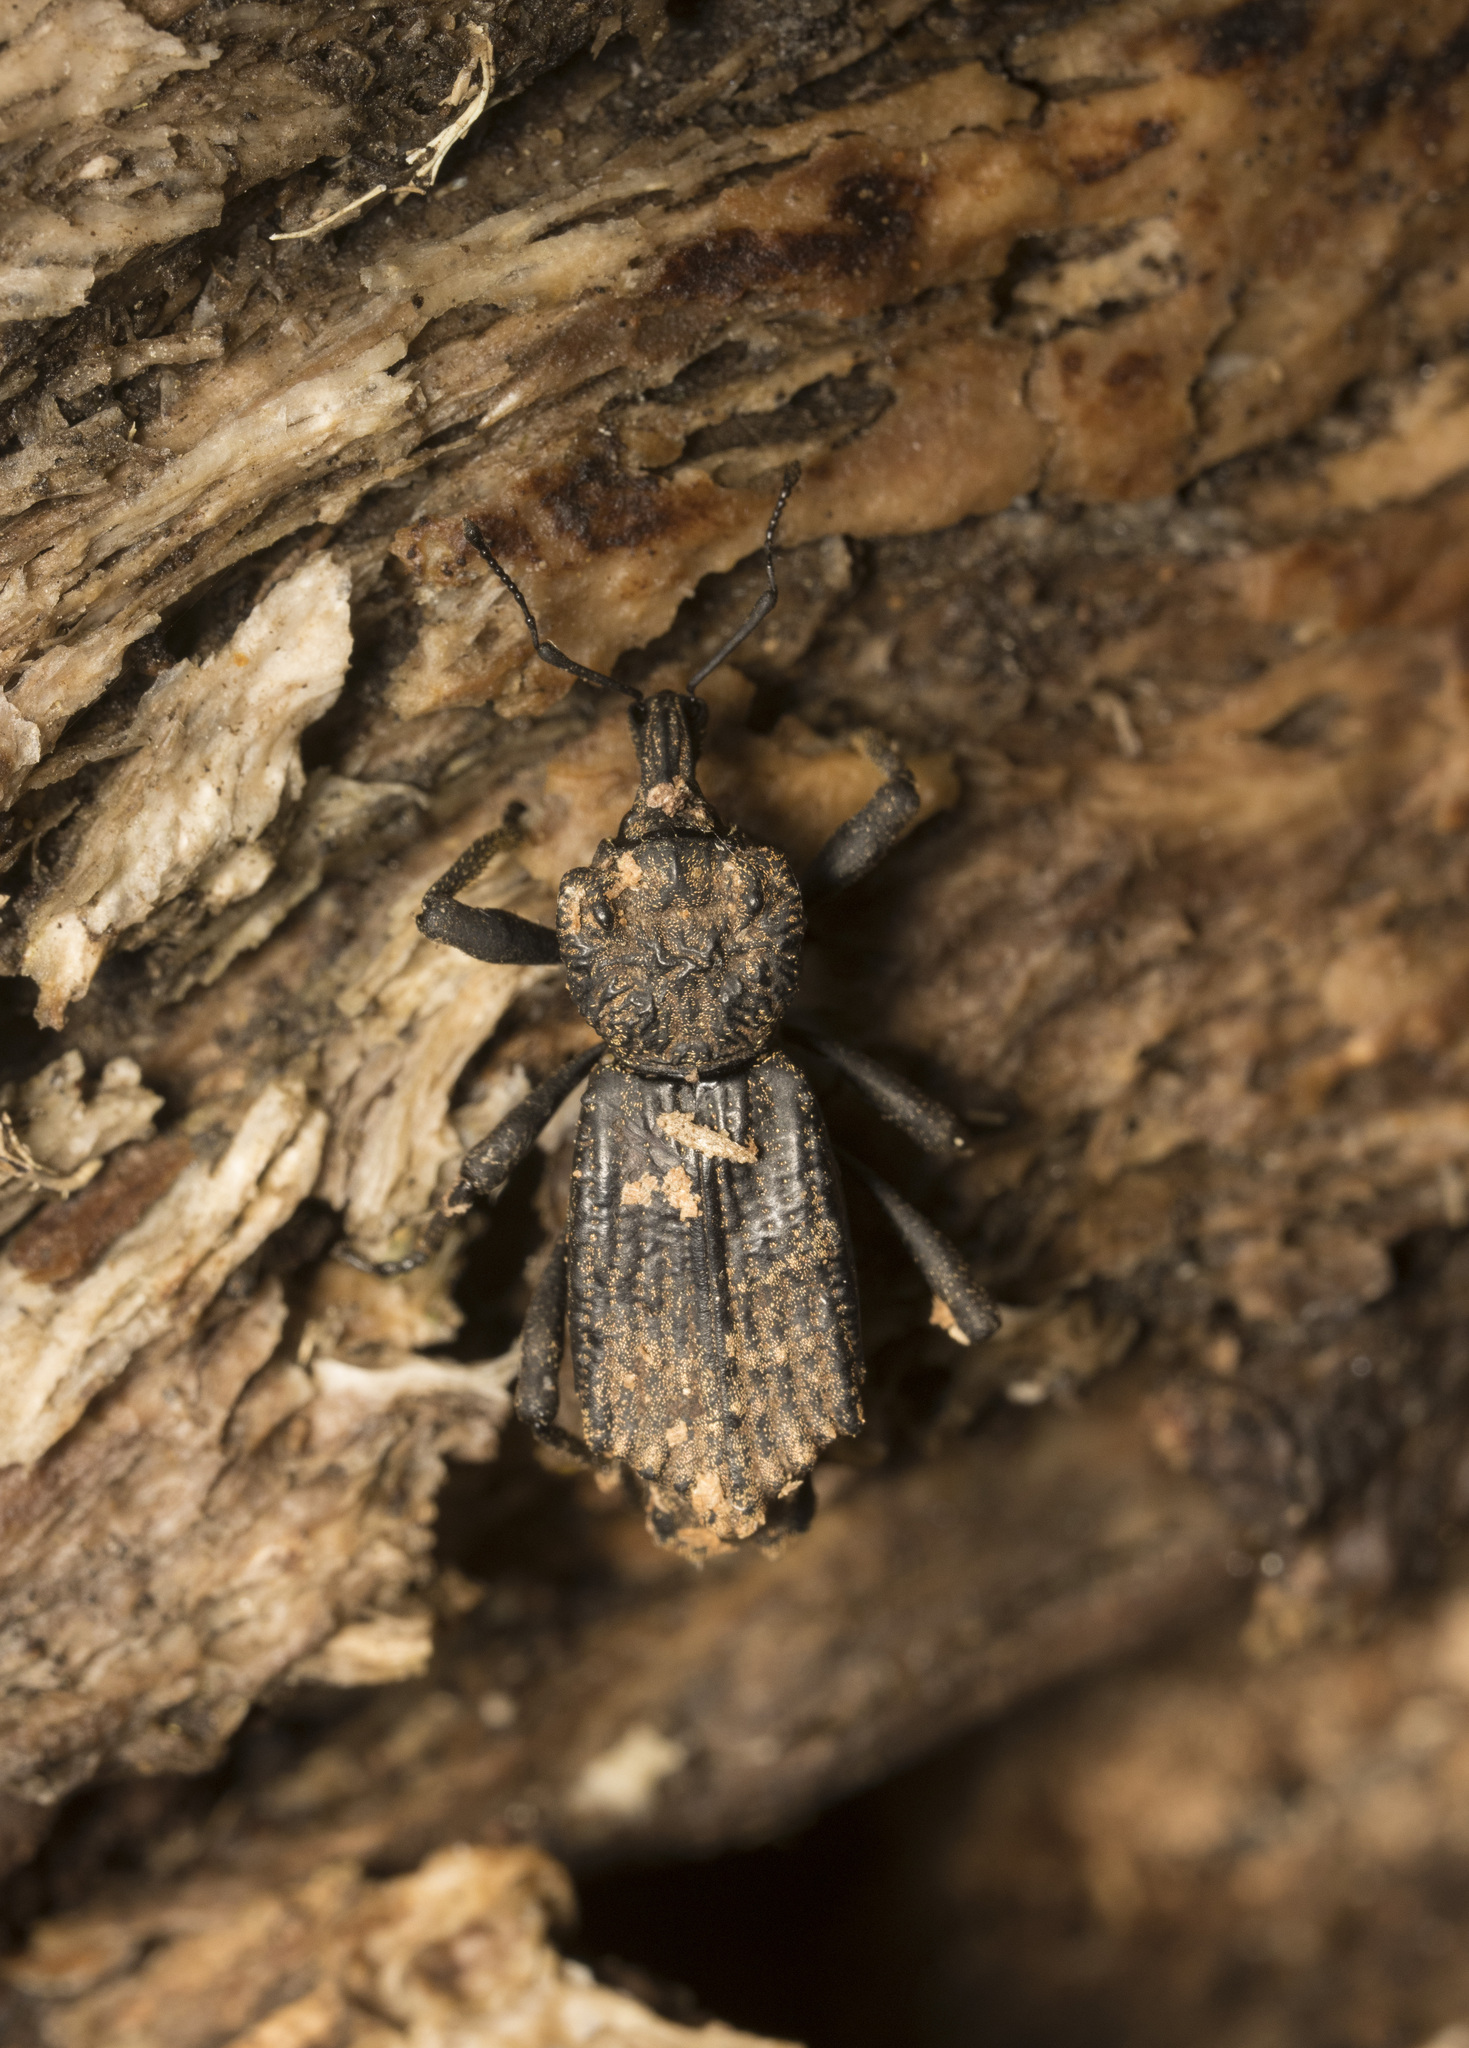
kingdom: Animalia
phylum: Arthropoda
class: Insecta
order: Coleoptera
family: Curculionidae
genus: Philippius
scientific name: Philippius
